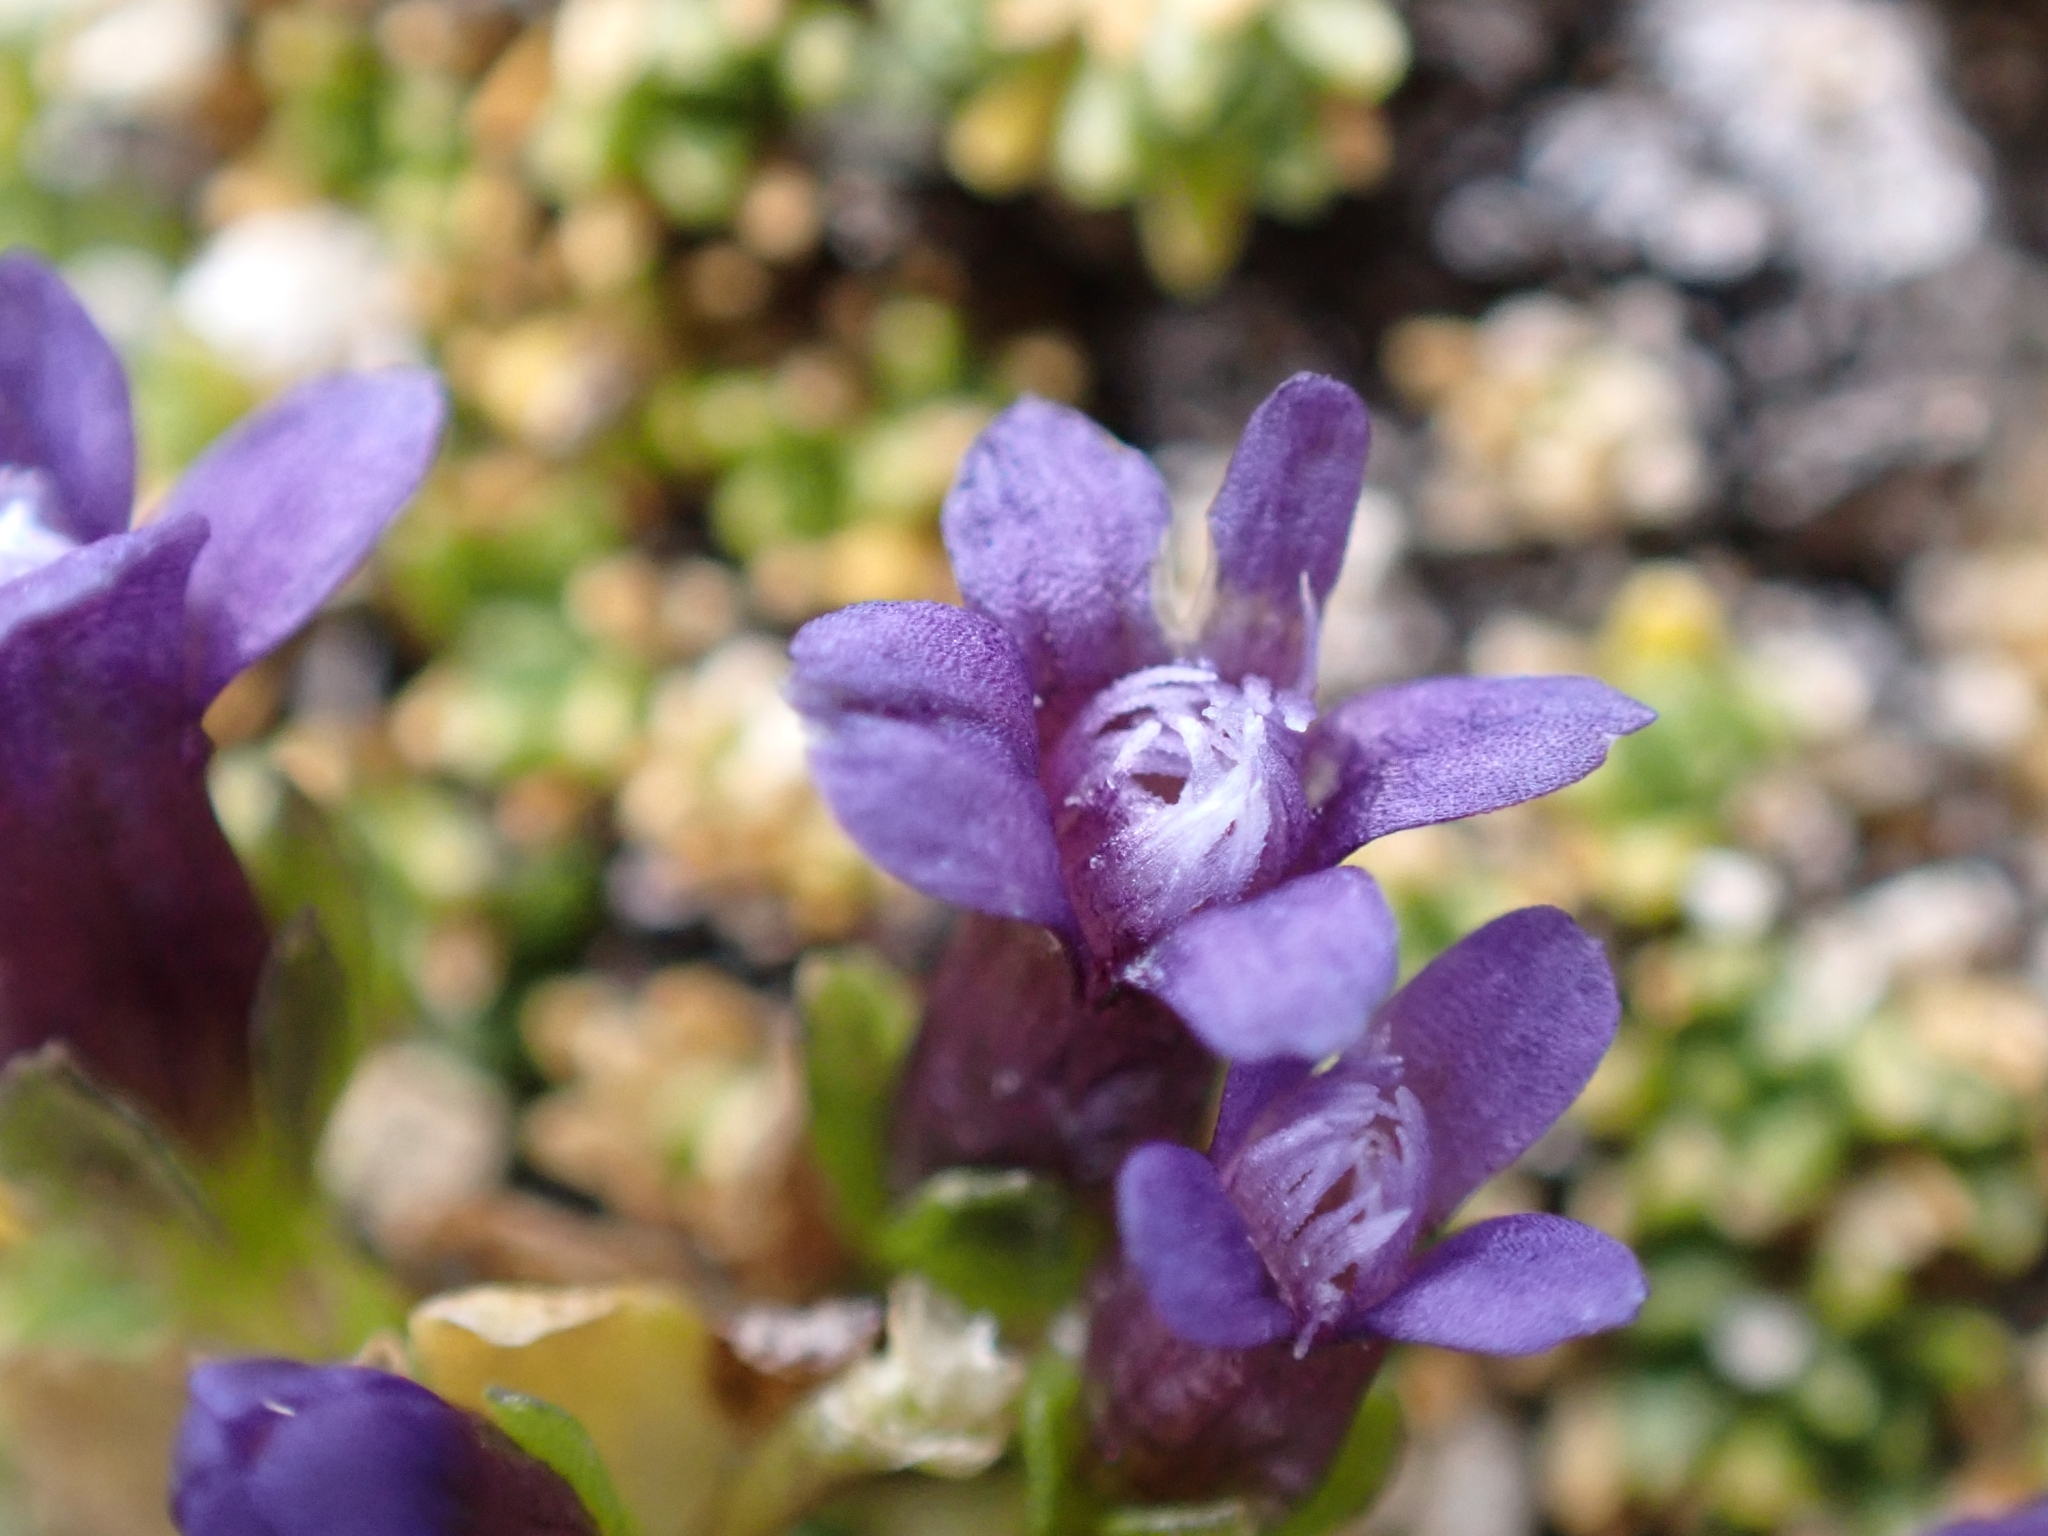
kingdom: Plantae
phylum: Tracheophyta
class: Magnoliopsida
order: Gentianales
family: Gentianaceae
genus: Comastoma
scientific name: Comastoma nanum
